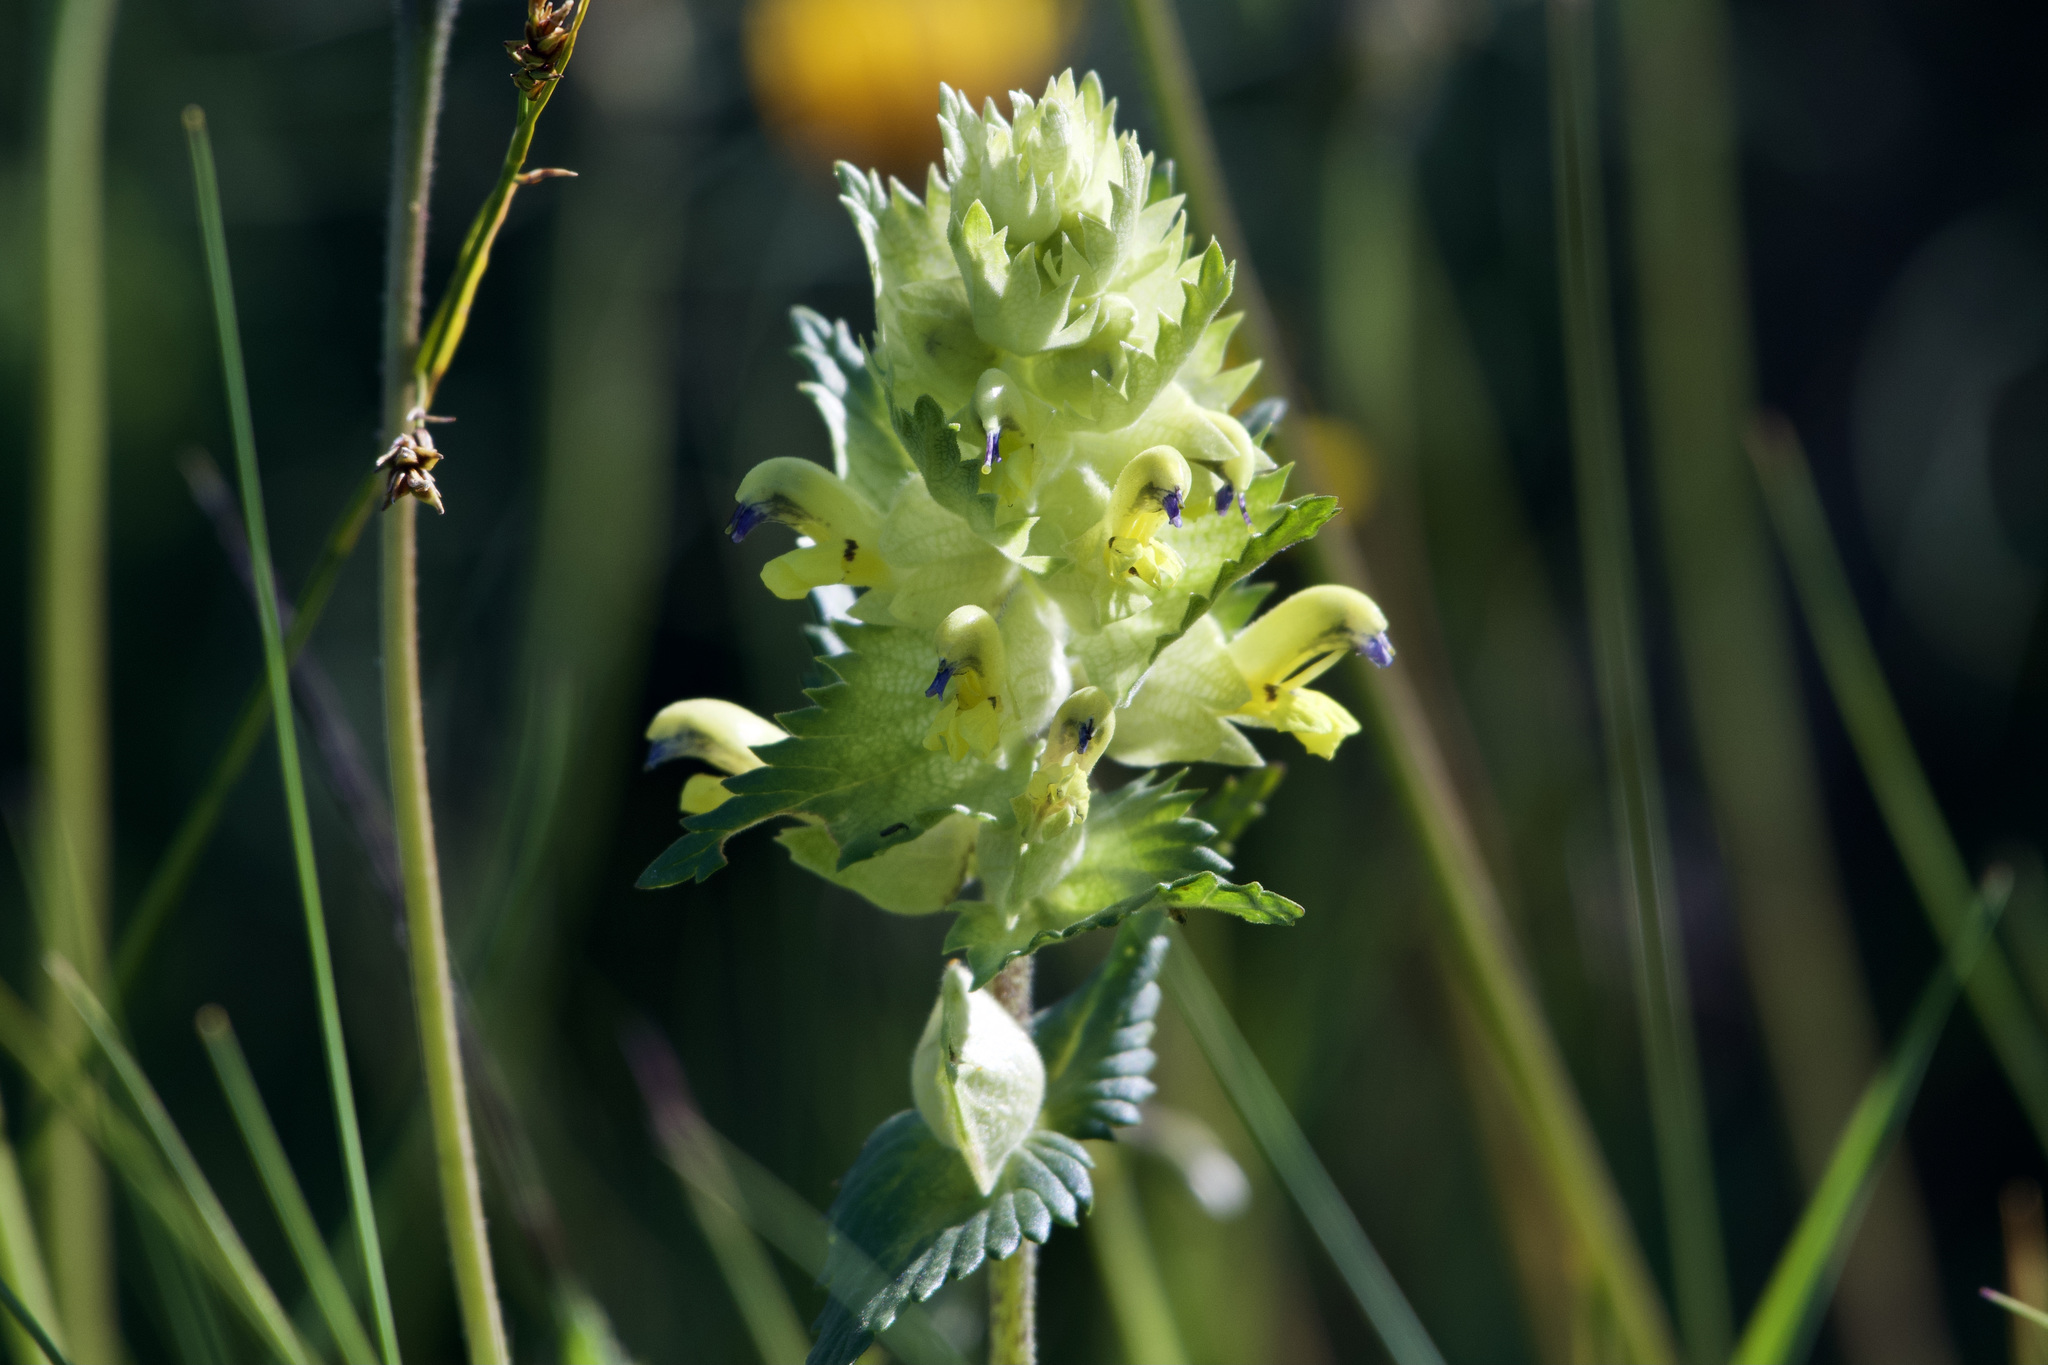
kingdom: Plantae
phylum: Tracheophyta
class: Magnoliopsida
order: Lamiales
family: Orobanchaceae
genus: Rhinanthus
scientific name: Rhinanthus freynii
